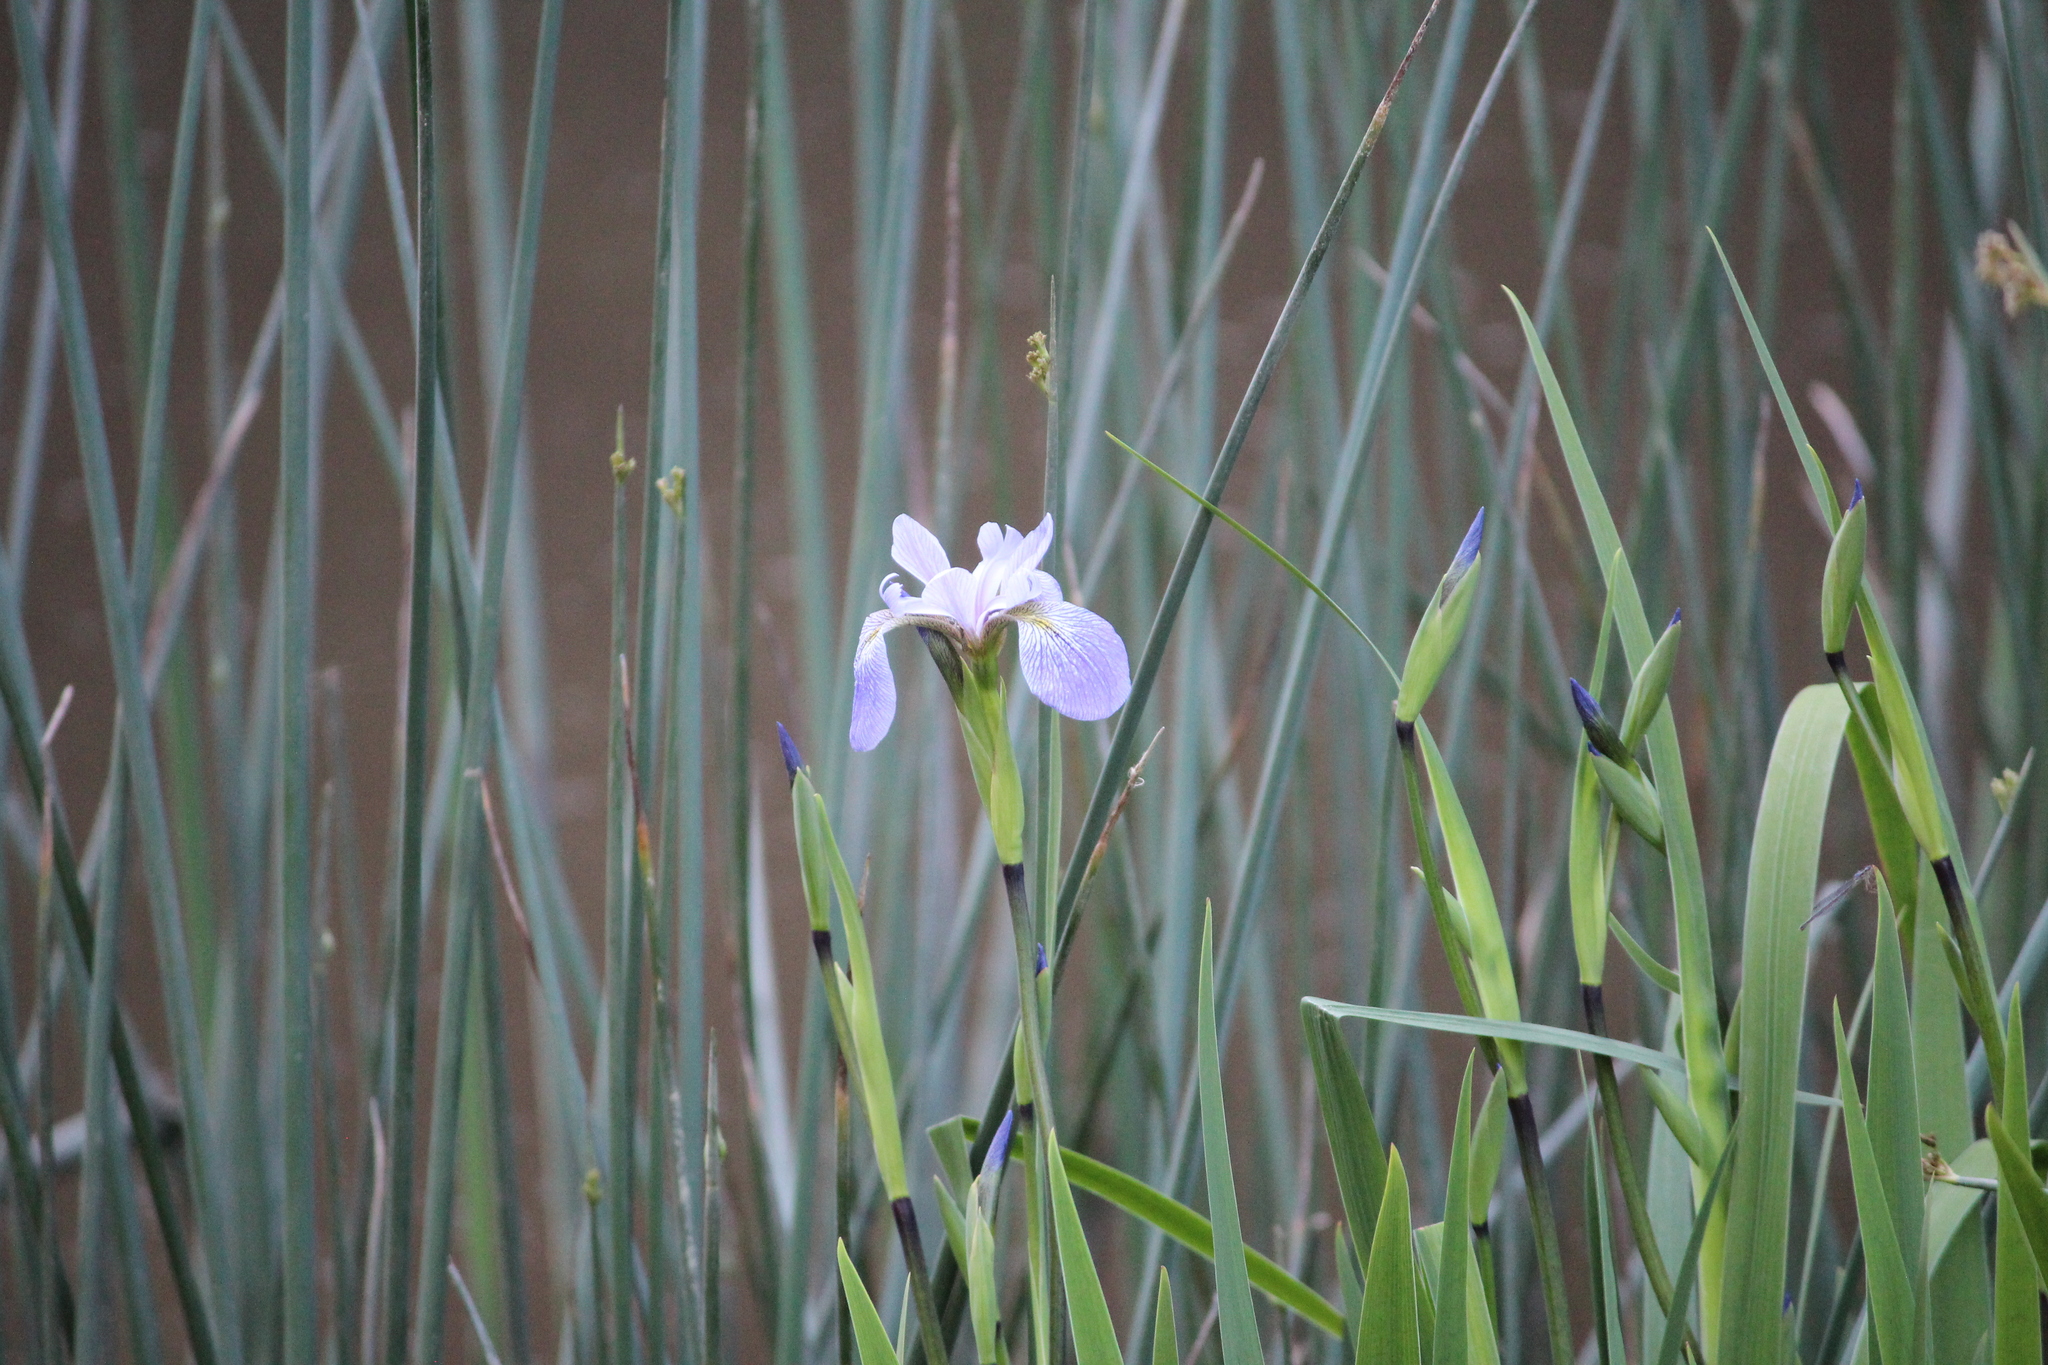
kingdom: Plantae
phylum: Tracheophyta
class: Liliopsida
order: Asparagales
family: Iridaceae
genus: Iris
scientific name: Iris virginica
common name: Southern blue flag
